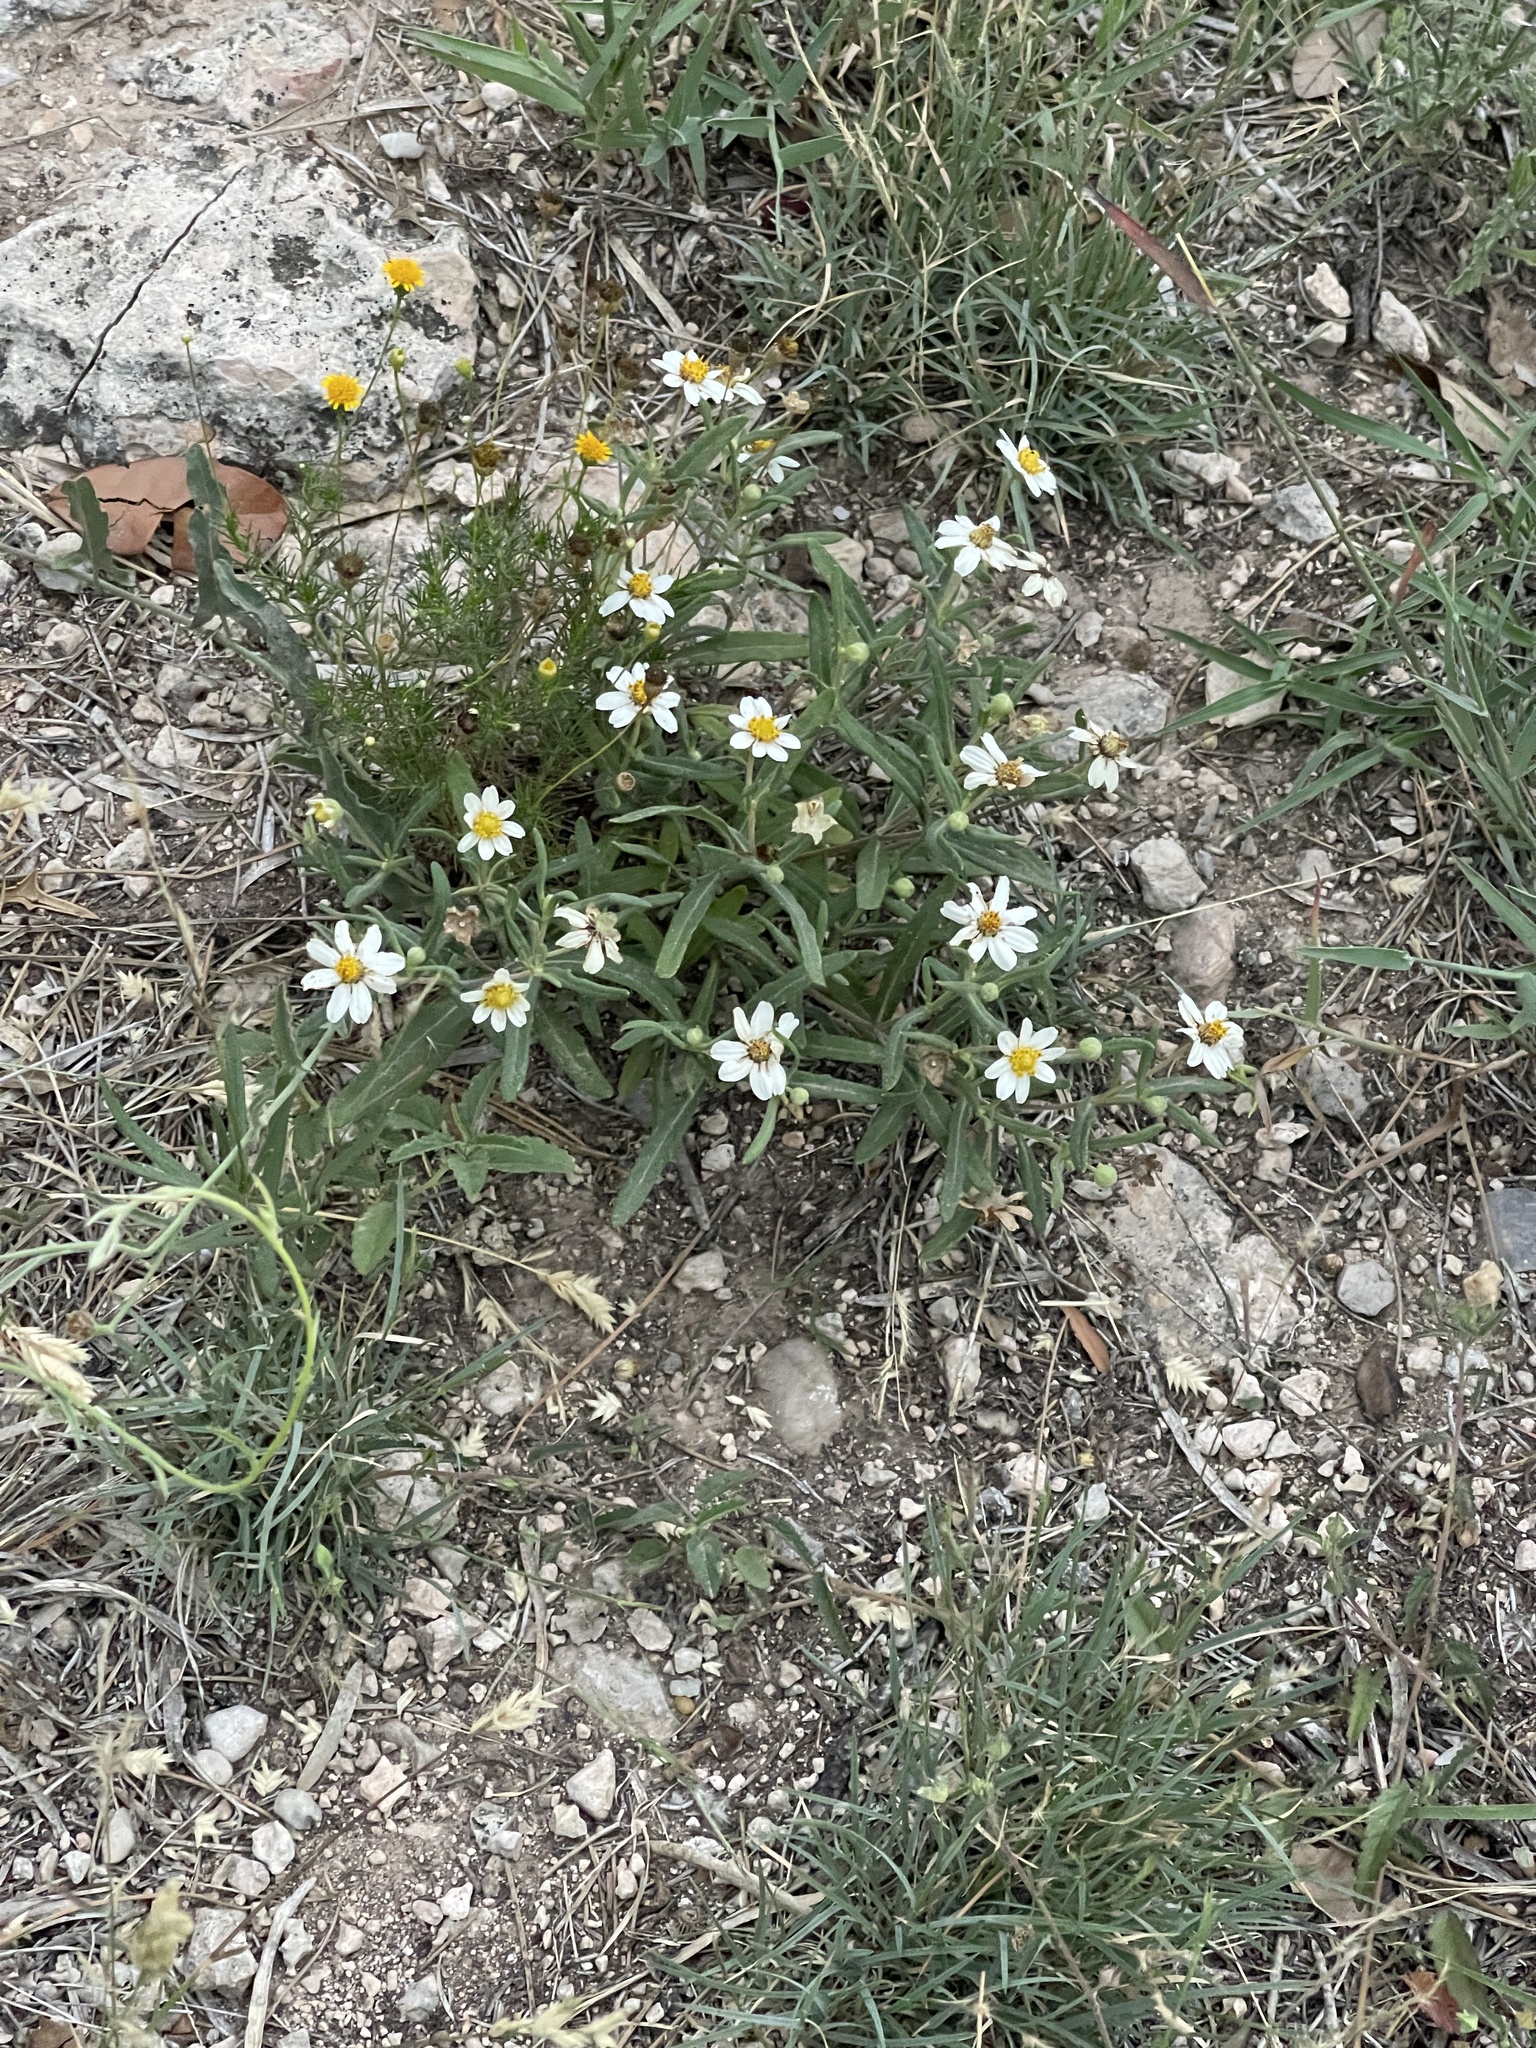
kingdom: Plantae
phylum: Tracheophyta
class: Magnoliopsida
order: Asterales
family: Asteraceae
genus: Melampodium
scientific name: Melampodium leucanthum
